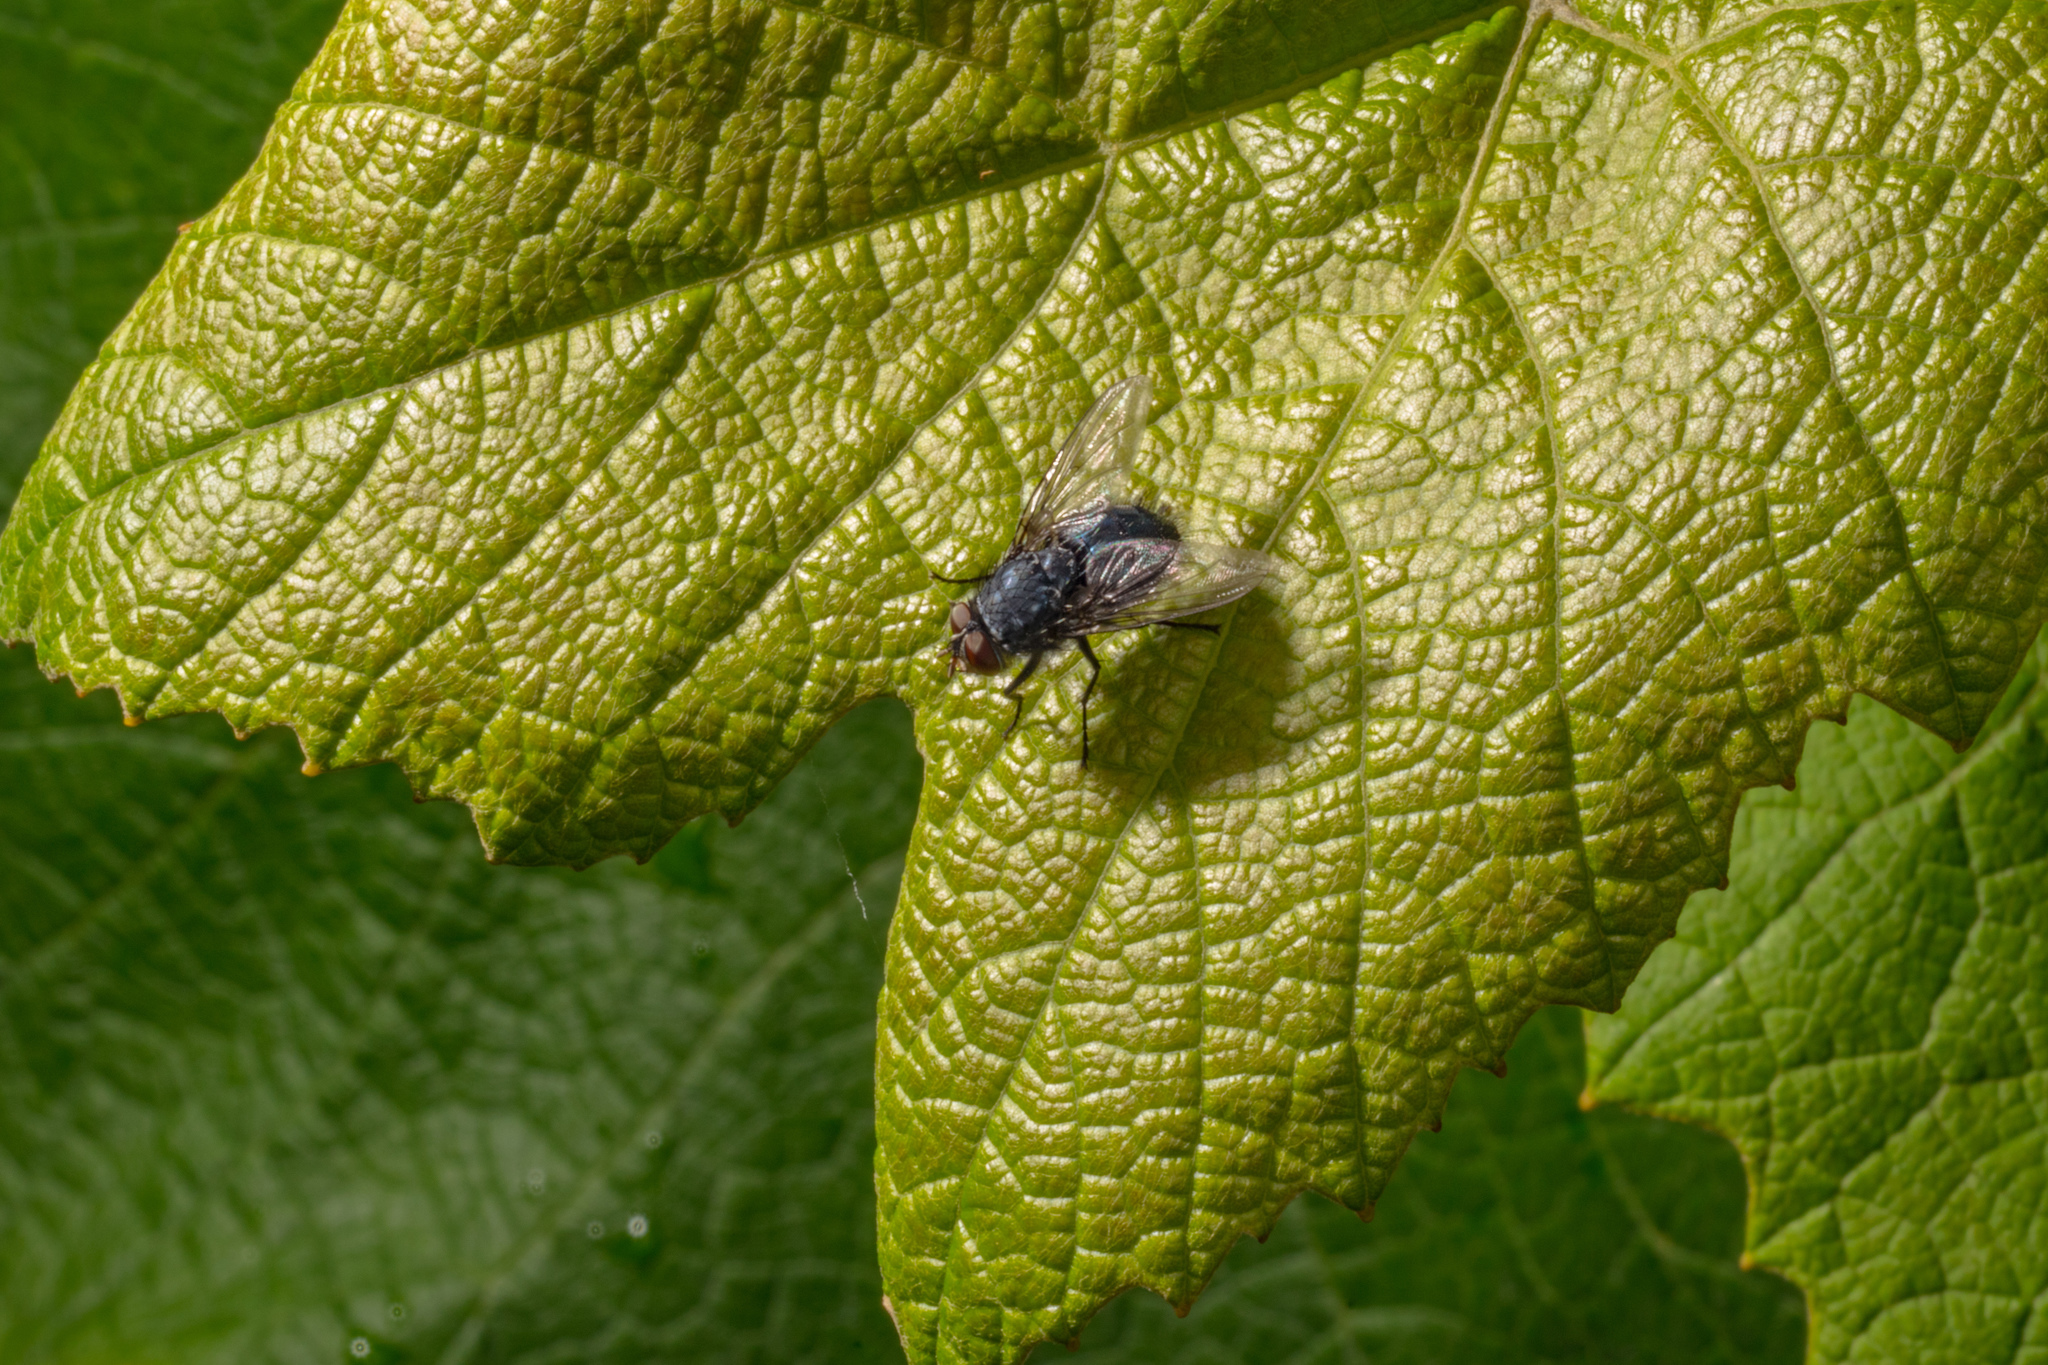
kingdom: Animalia
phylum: Arthropoda
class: Insecta
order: Diptera
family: Calliphoridae
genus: Calliphora
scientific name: Calliphora vicina
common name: Common blow flie
